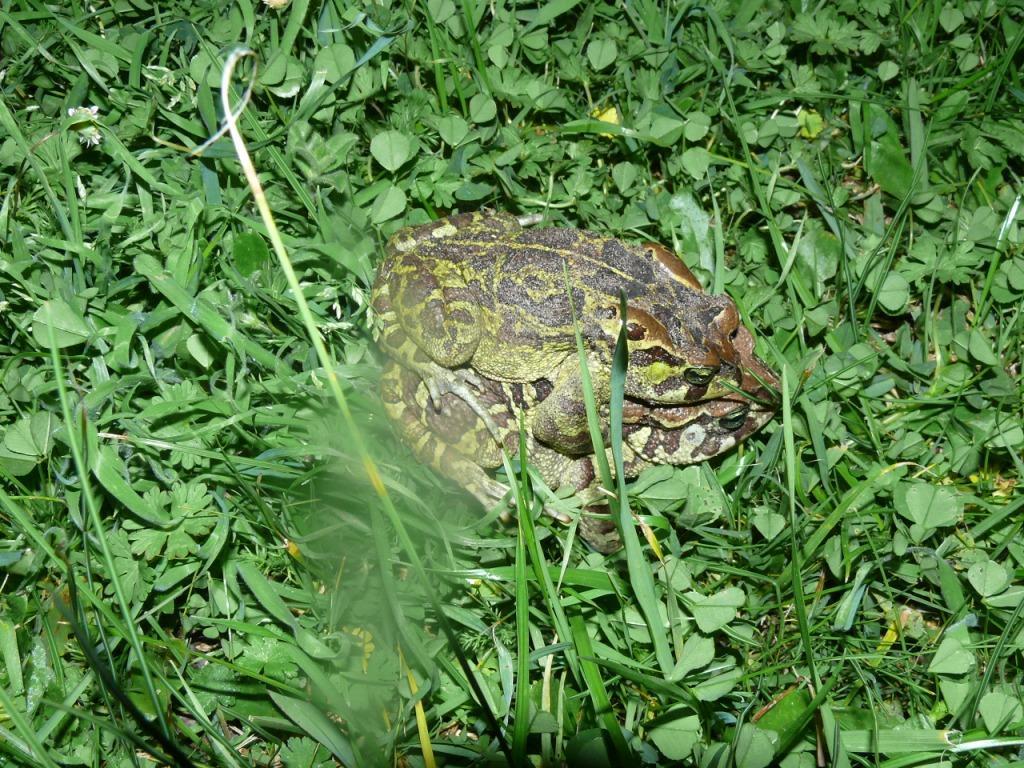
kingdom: Animalia
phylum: Chordata
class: Amphibia
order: Anura
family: Bufonidae
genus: Sclerophrys
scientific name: Sclerophrys pantherina
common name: Panther toad
